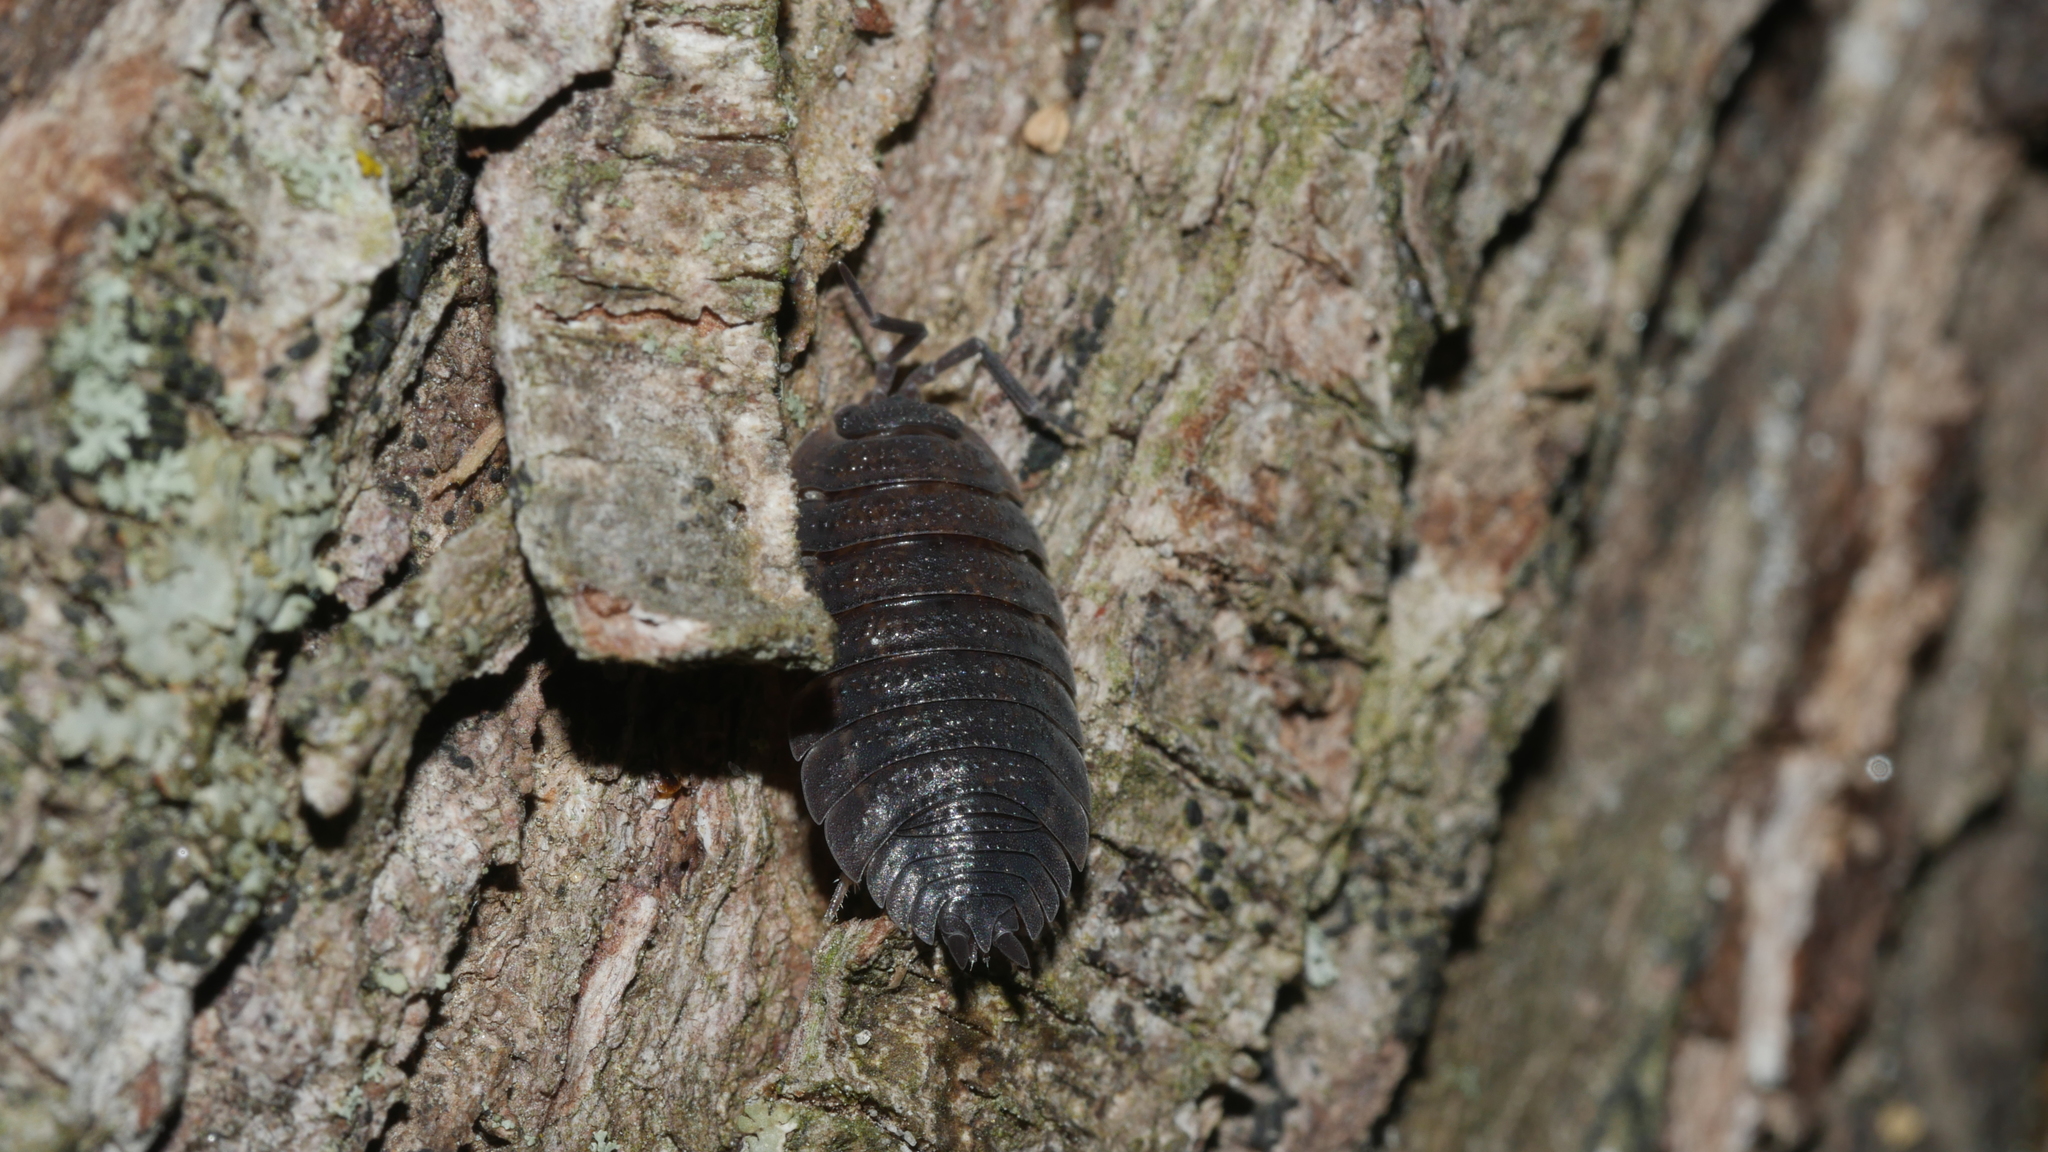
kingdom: Animalia
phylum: Arthropoda
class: Malacostraca
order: Isopoda
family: Porcellionidae
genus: Porcellio
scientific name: Porcellio scaber
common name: Common rough woodlouse
